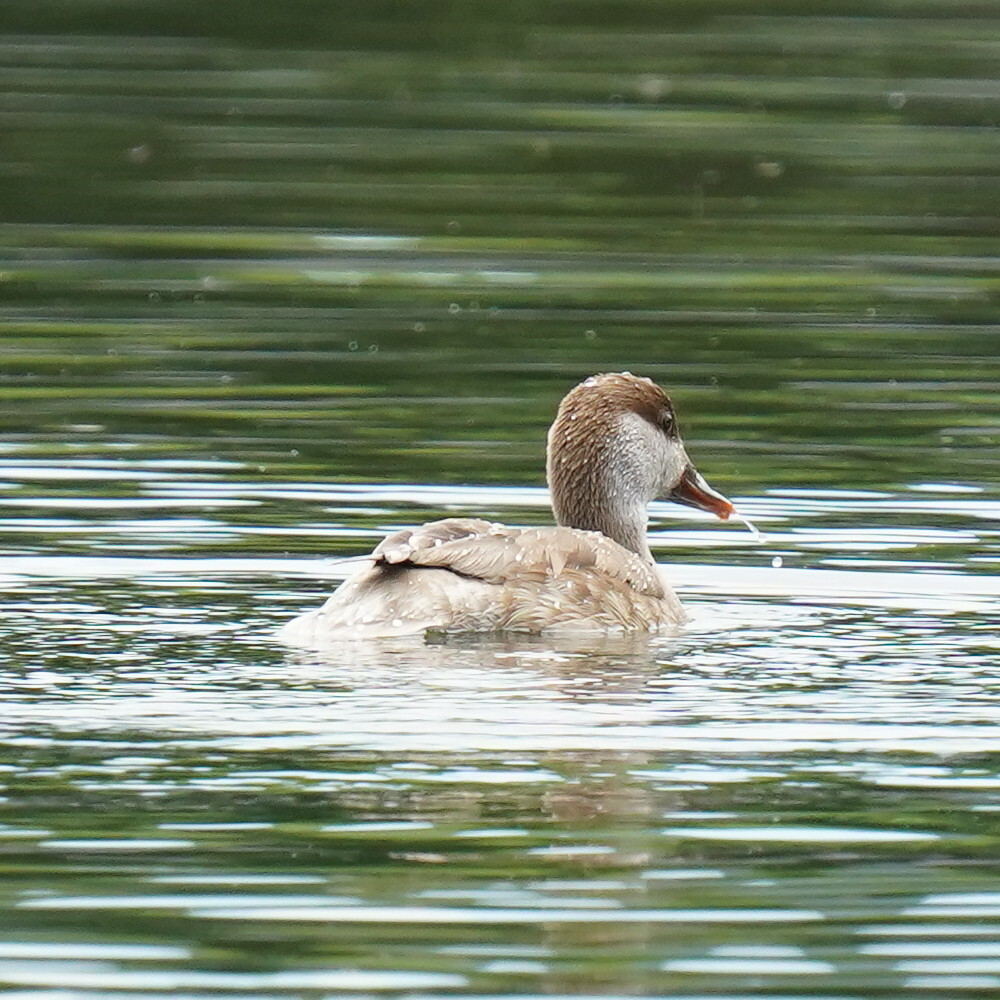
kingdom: Animalia
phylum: Chordata
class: Aves
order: Anseriformes
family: Anatidae
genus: Netta
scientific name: Netta rufina
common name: Red-crested pochard
